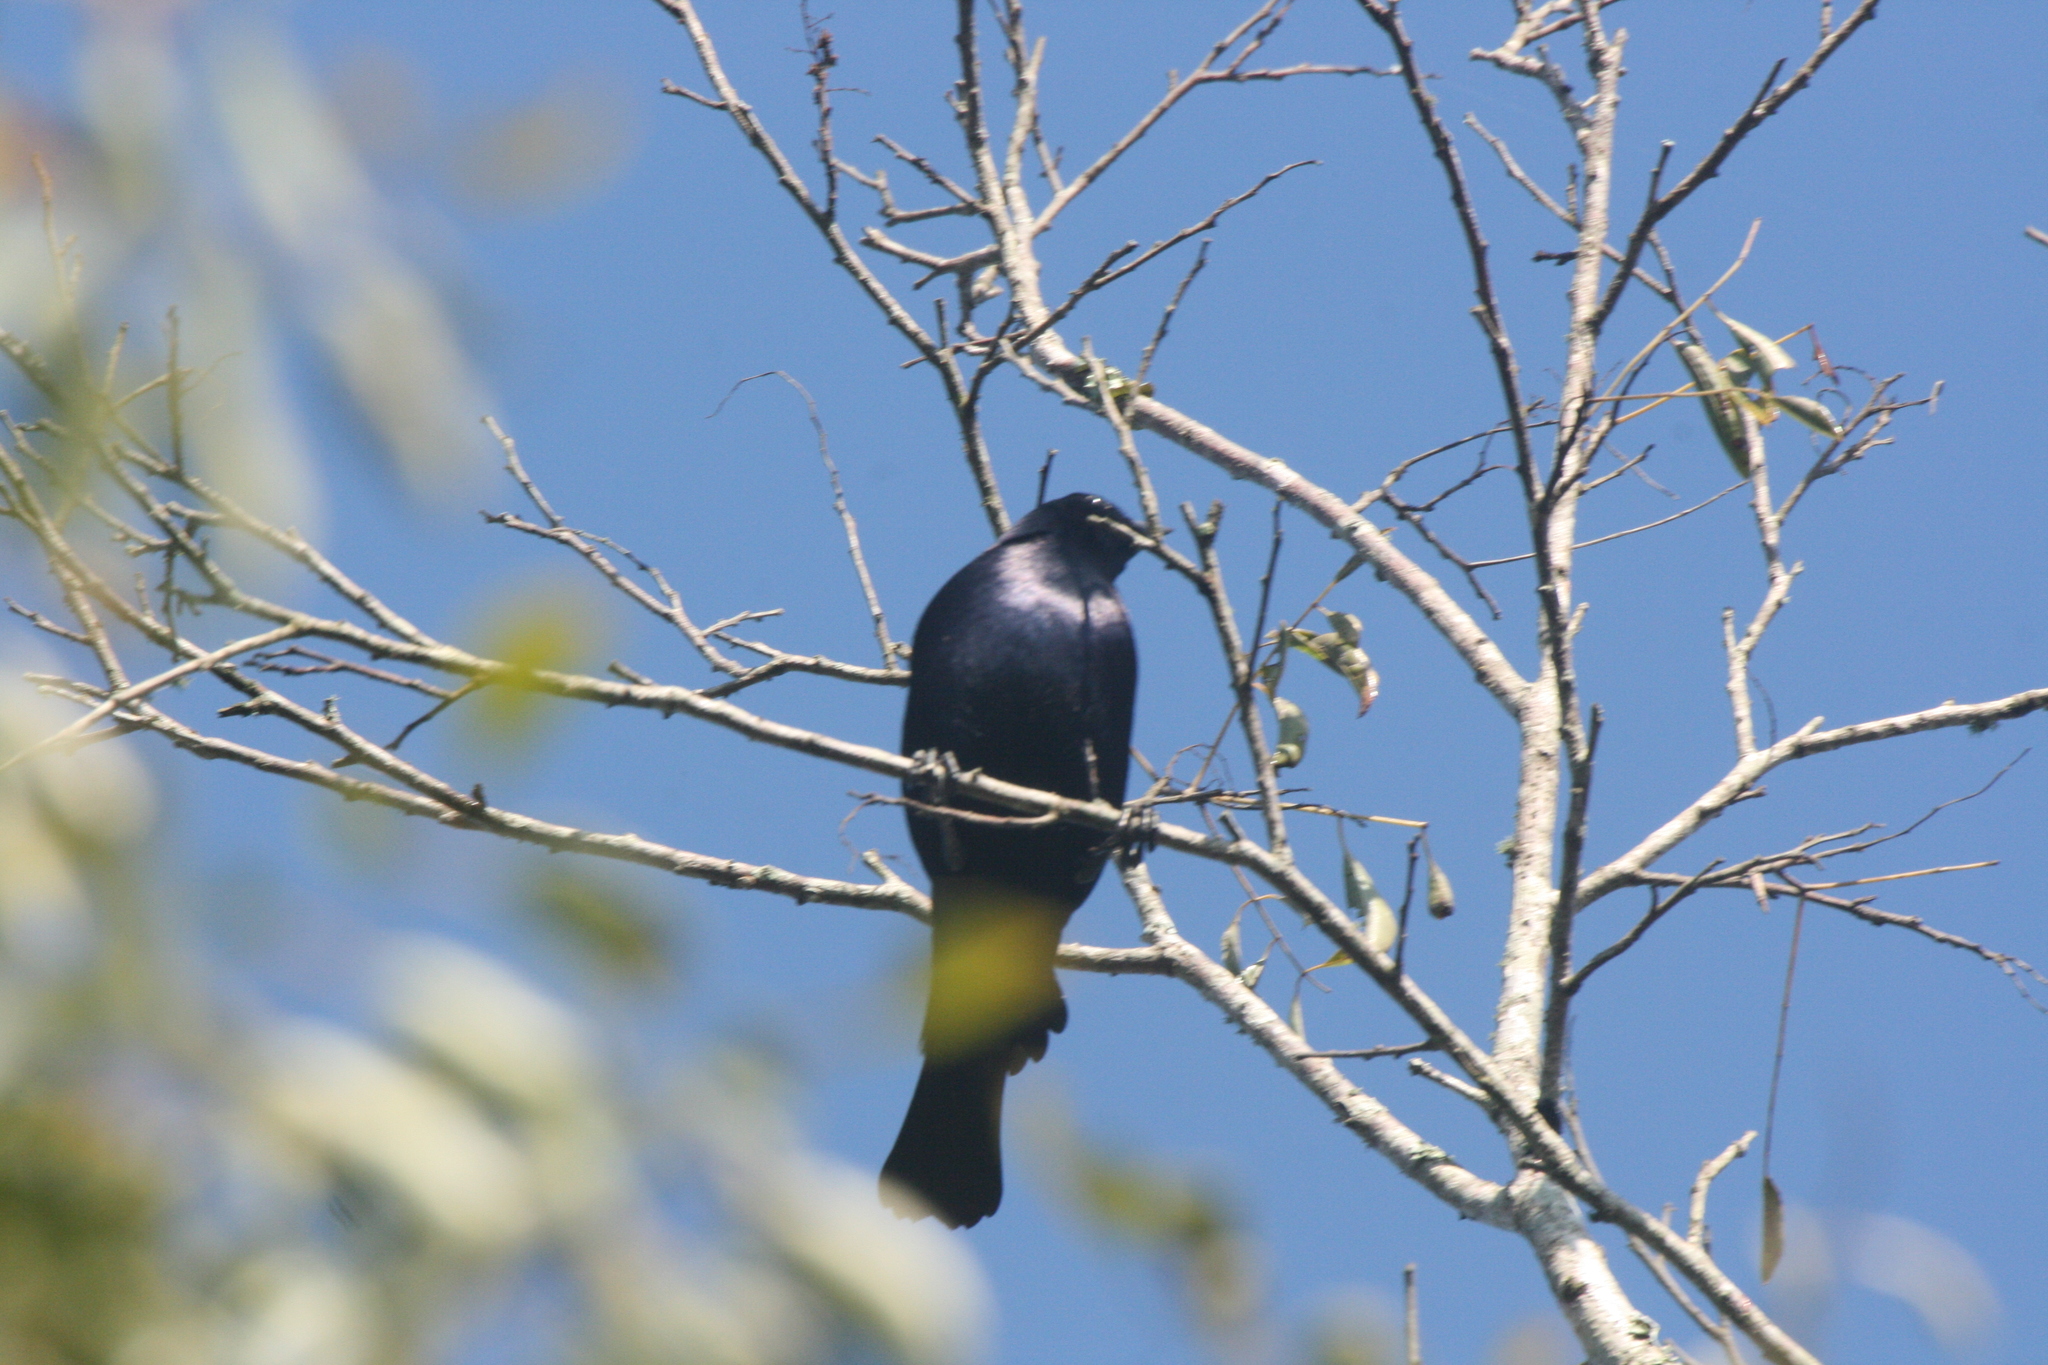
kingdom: Animalia
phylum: Chordata
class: Aves
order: Passeriformes
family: Icteridae
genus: Molothrus
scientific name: Molothrus bonariensis
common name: Shiny cowbird
